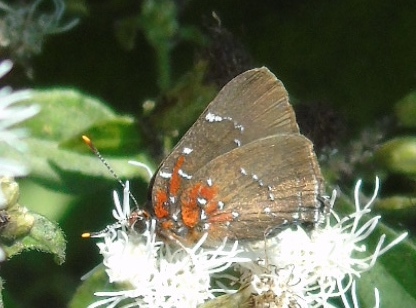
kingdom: Animalia
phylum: Arthropoda
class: Insecta
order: Lepidoptera
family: Lycaenidae
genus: Atlides
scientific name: Atlides Brangas neora
